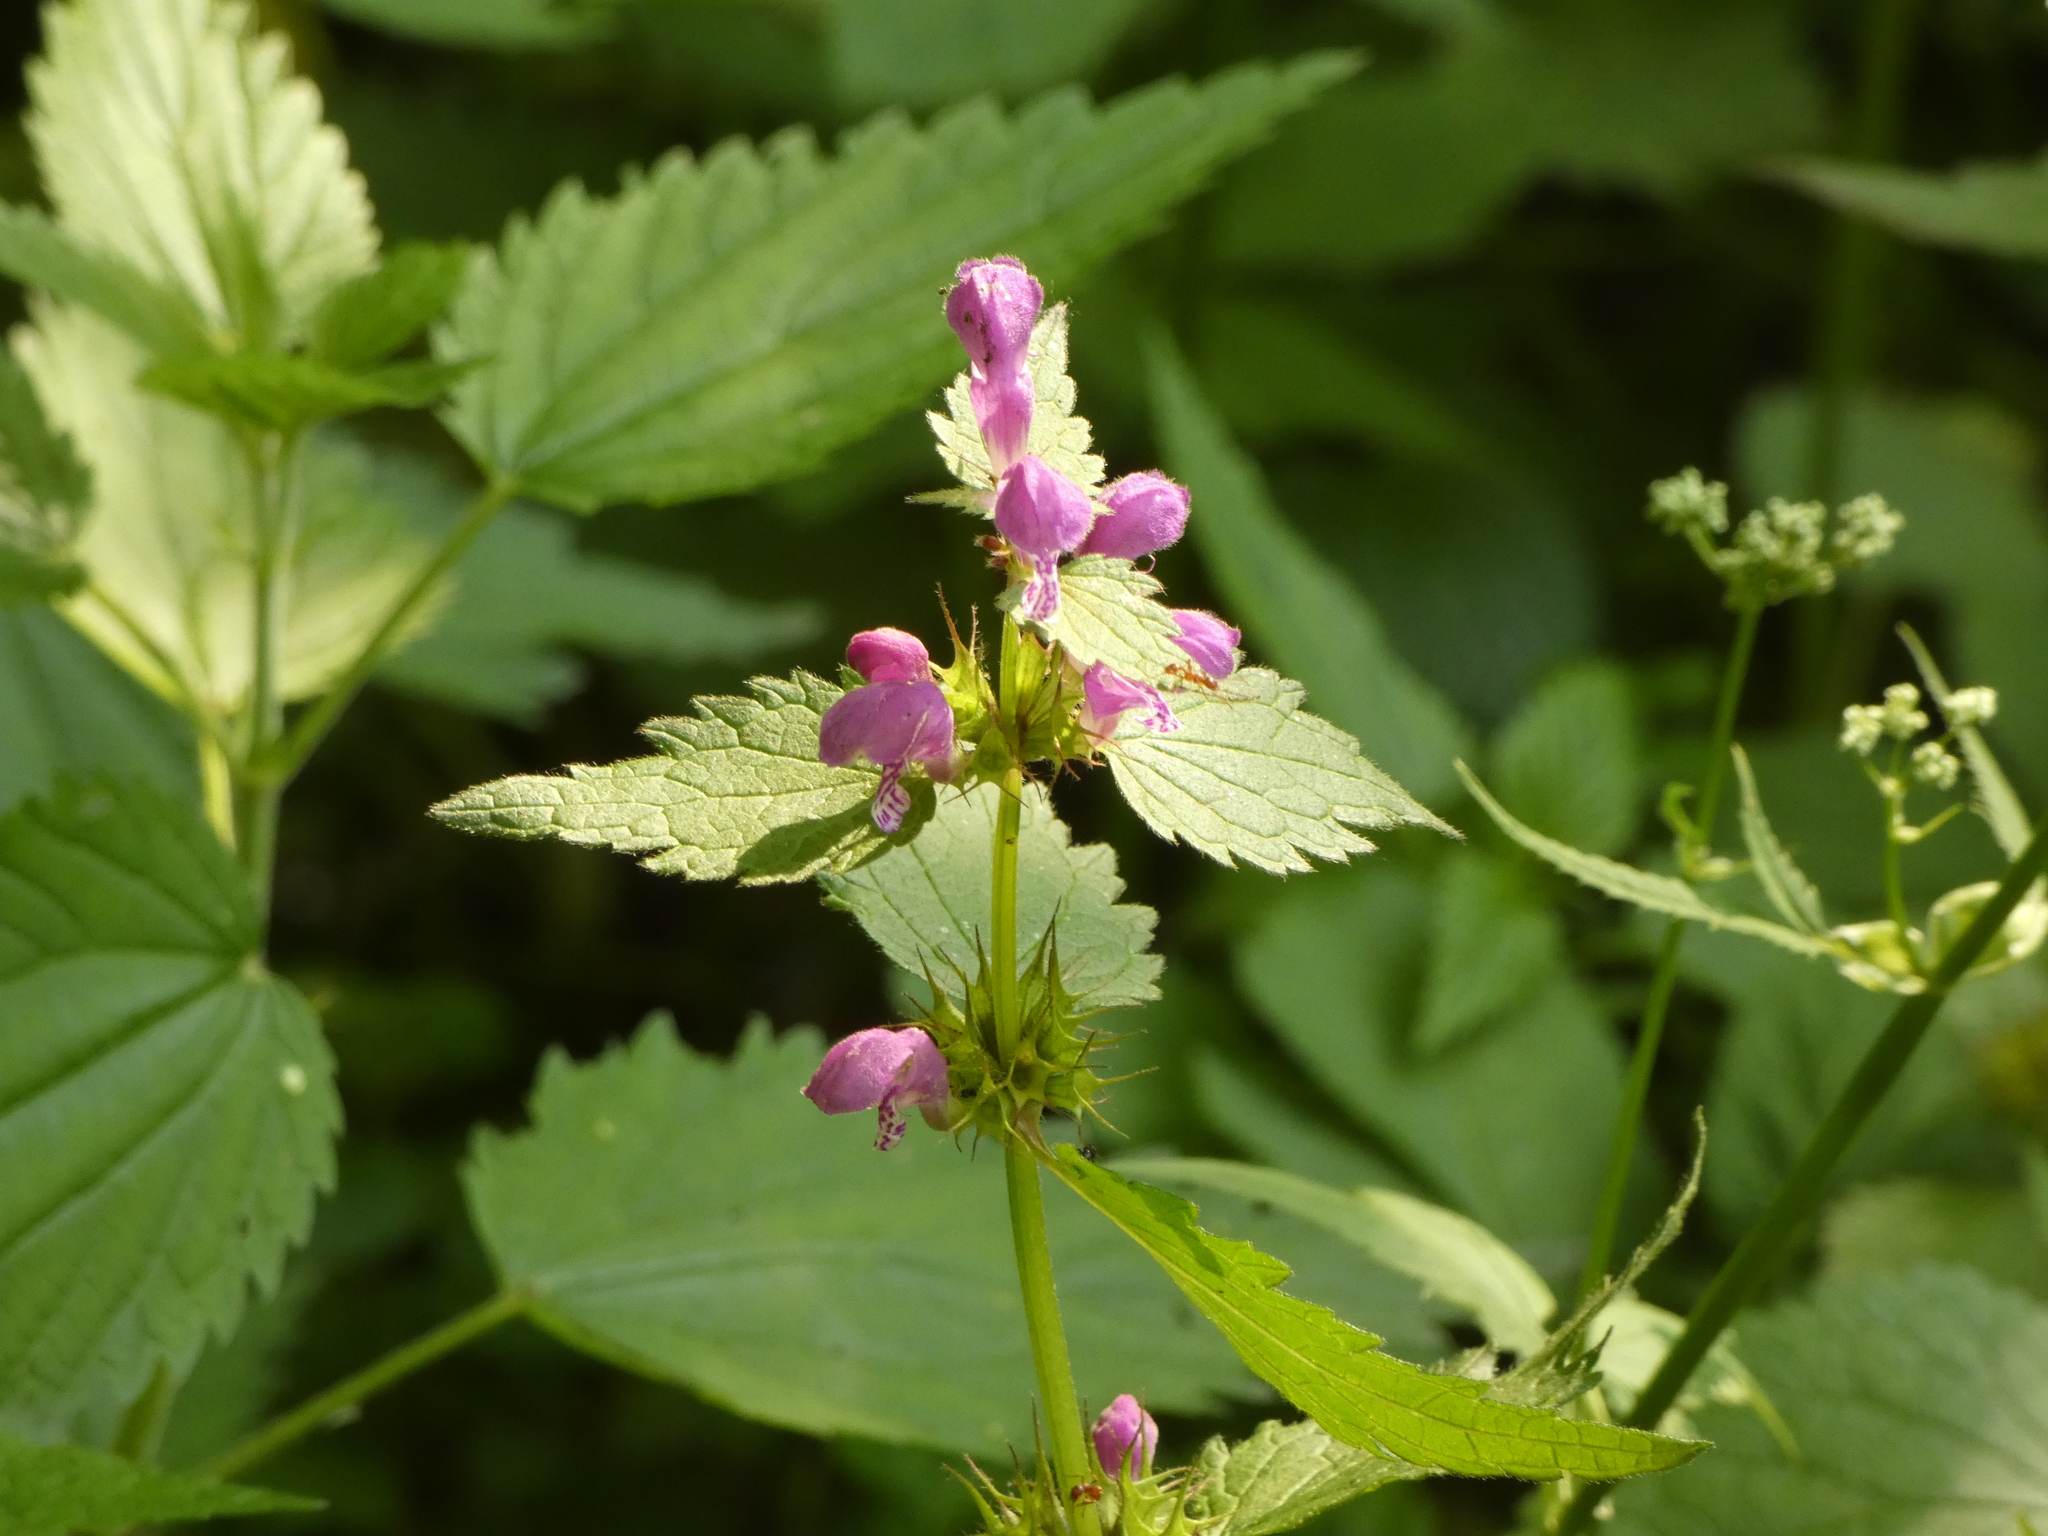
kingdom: Plantae
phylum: Tracheophyta
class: Magnoliopsida
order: Lamiales
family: Lamiaceae
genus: Lamium
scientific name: Lamium maculatum
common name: Spotted dead-nettle
